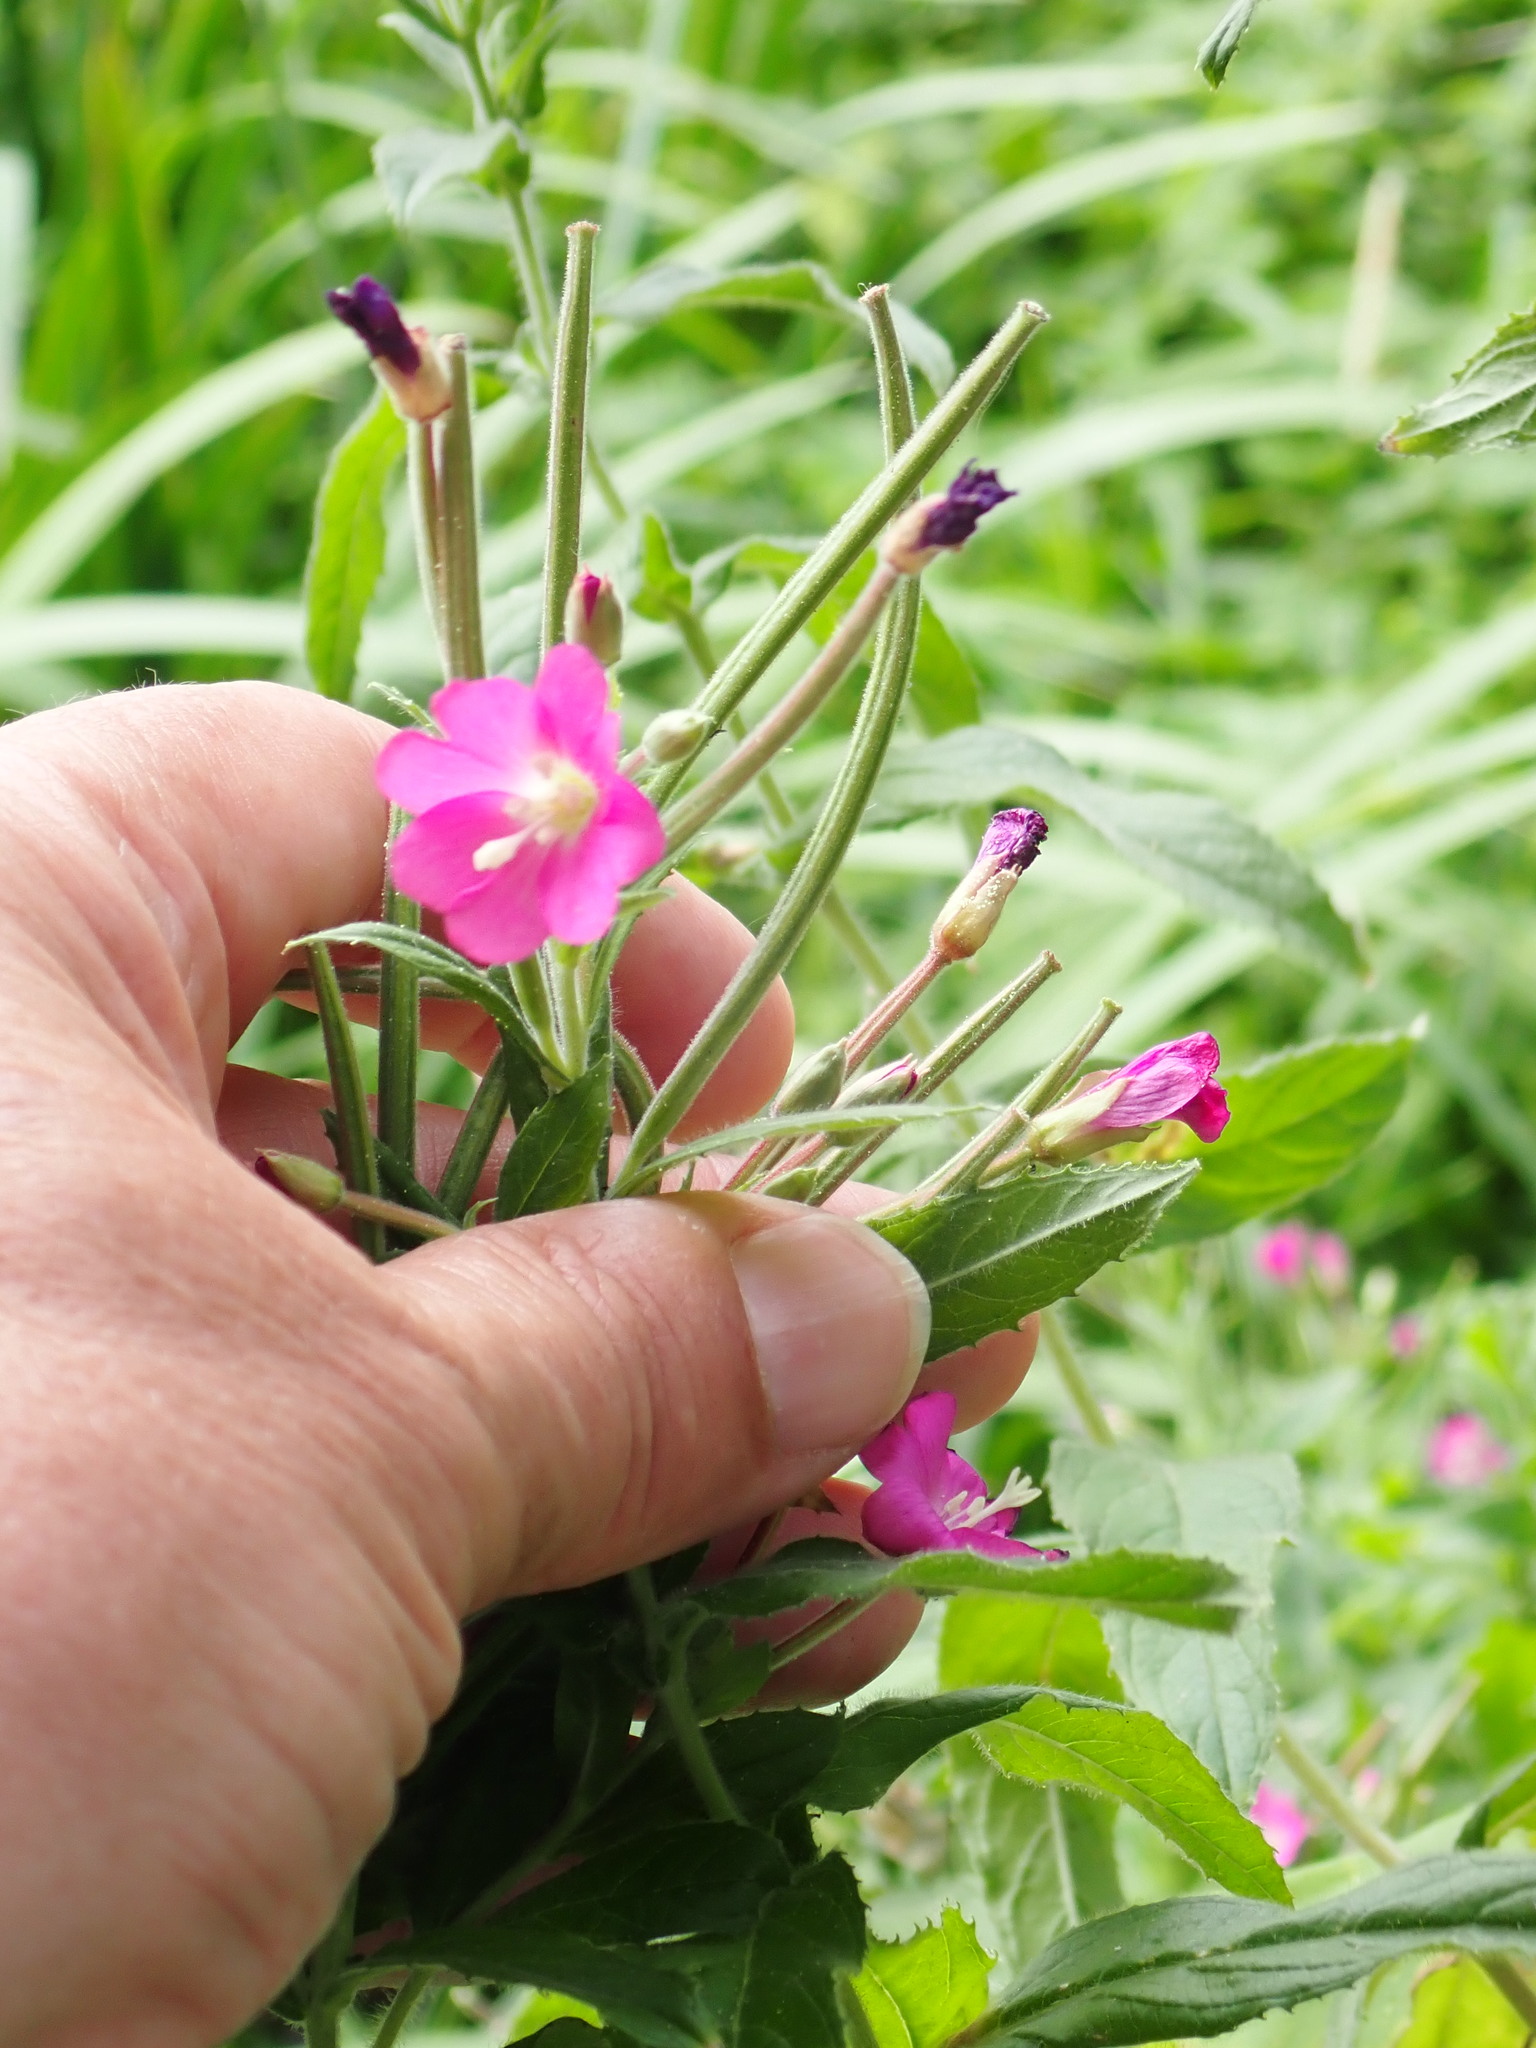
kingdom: Plantae
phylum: Tracheophyta
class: Magnoliopsida
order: Myrtales
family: Onagraceae
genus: Epilobium
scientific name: Epilobium hirsutum
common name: Great willowherb
